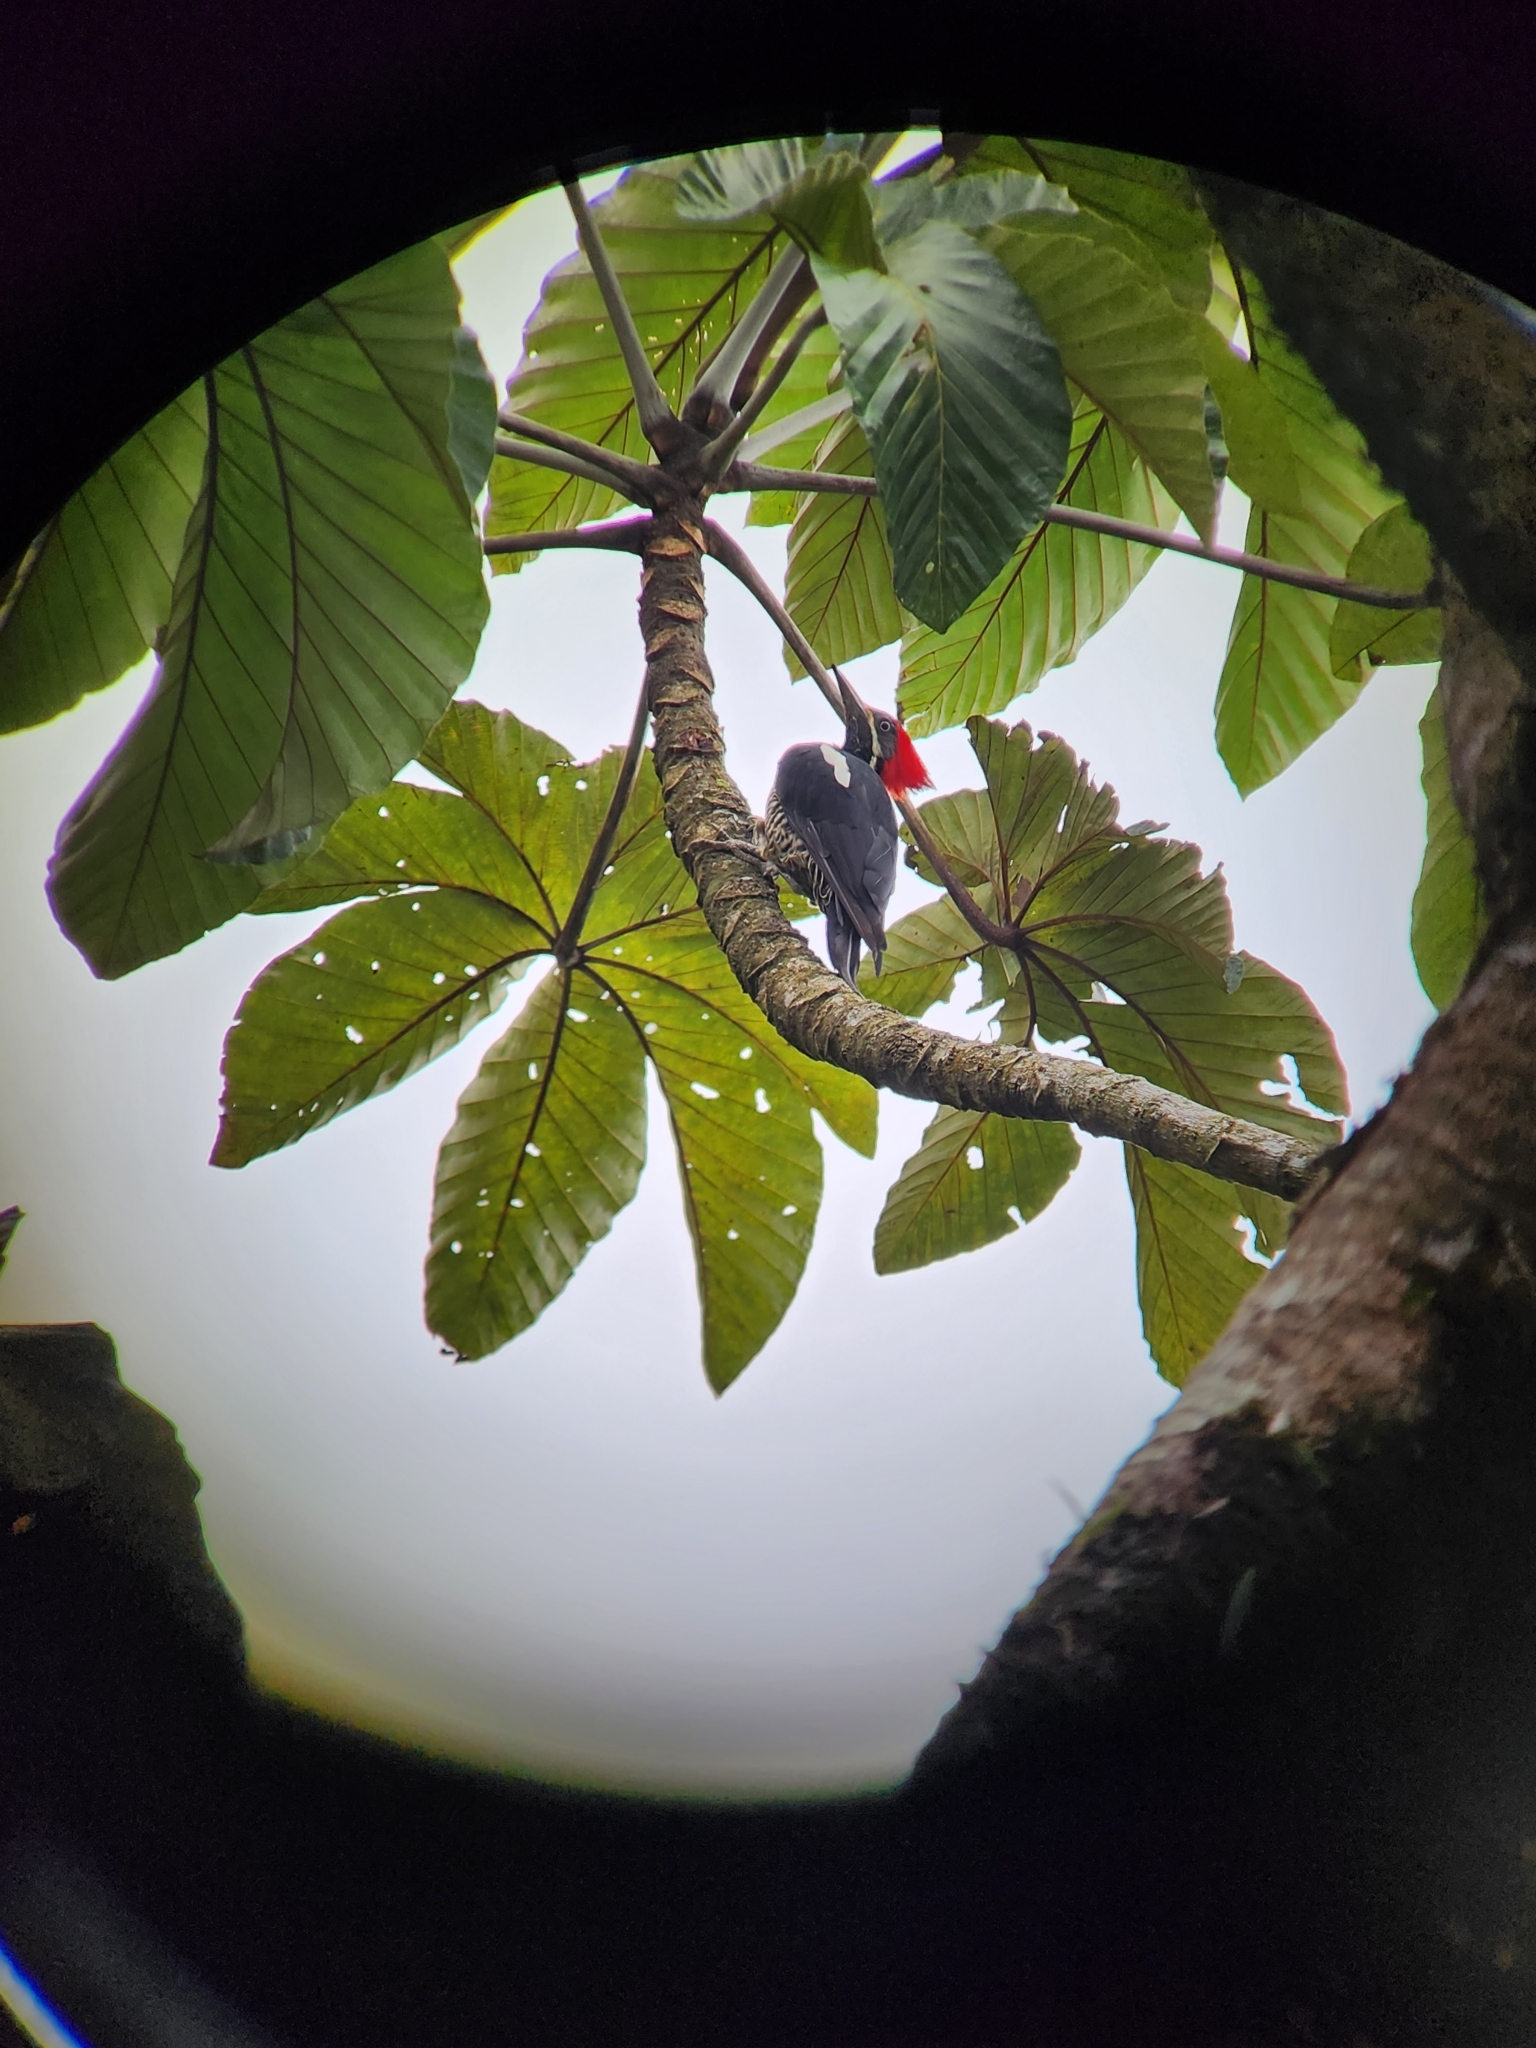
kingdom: Animalia
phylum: Chordata
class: Aves
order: Piciformes
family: Picidae
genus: Dryocopus
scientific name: Dryocopus lineatus
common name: Lineated woodpecker
